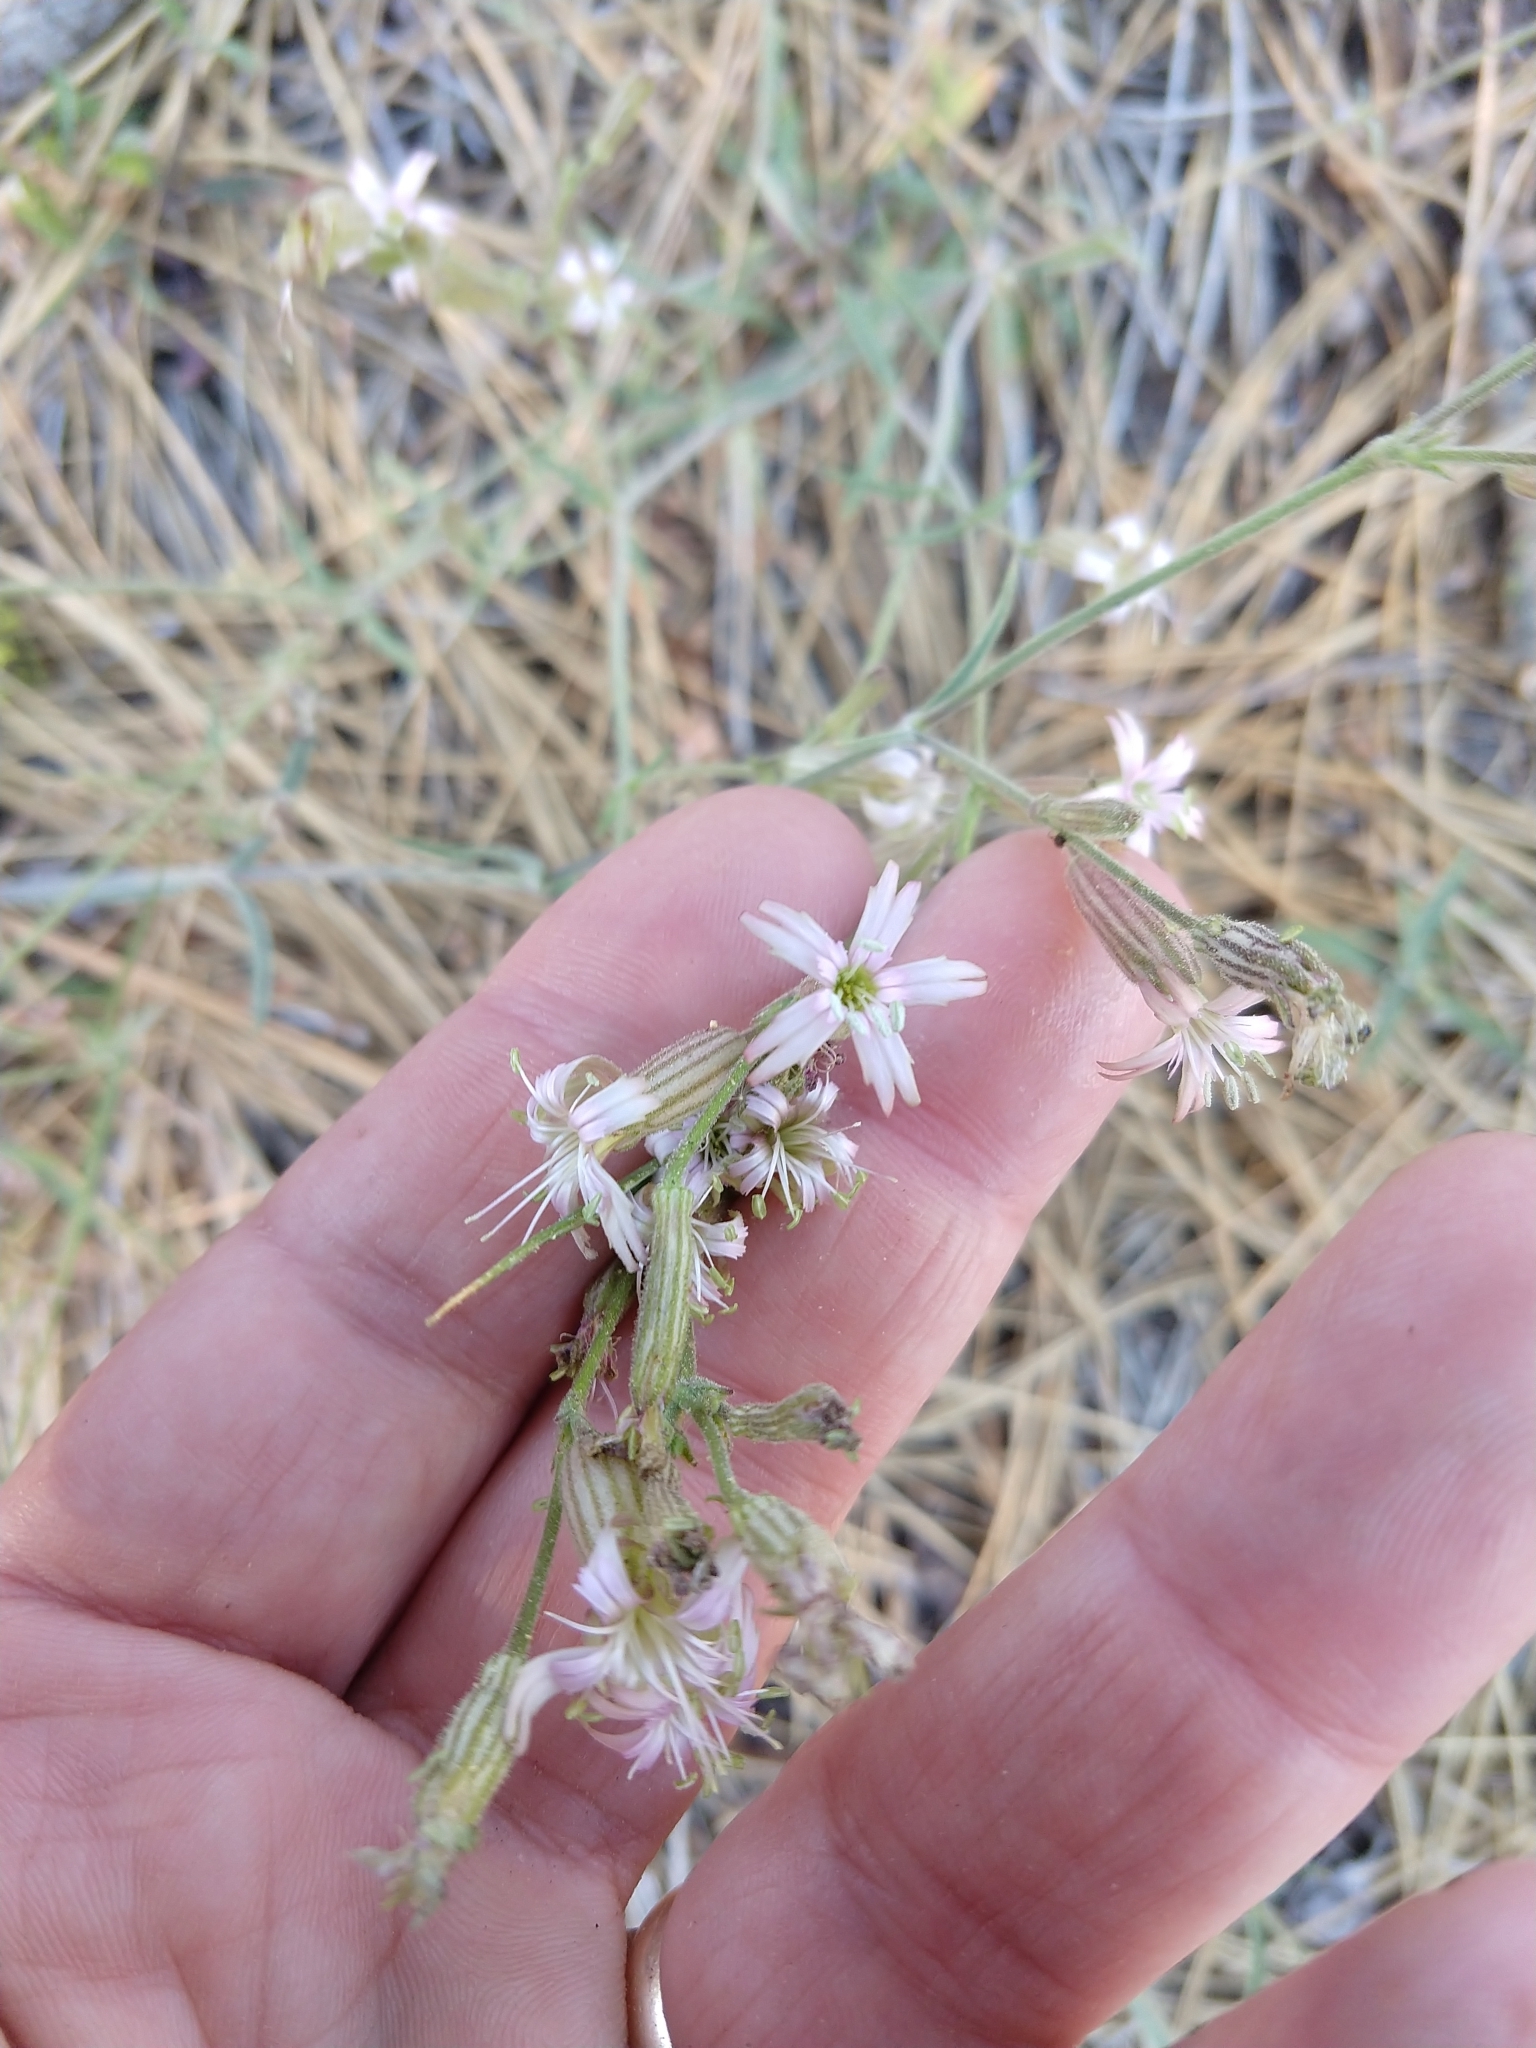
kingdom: Plantae
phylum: Tracheophyta
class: Magnoliopsida
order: Caryophyllales
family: Caryophyllaceae
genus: Silene
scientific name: Silene verecunda
